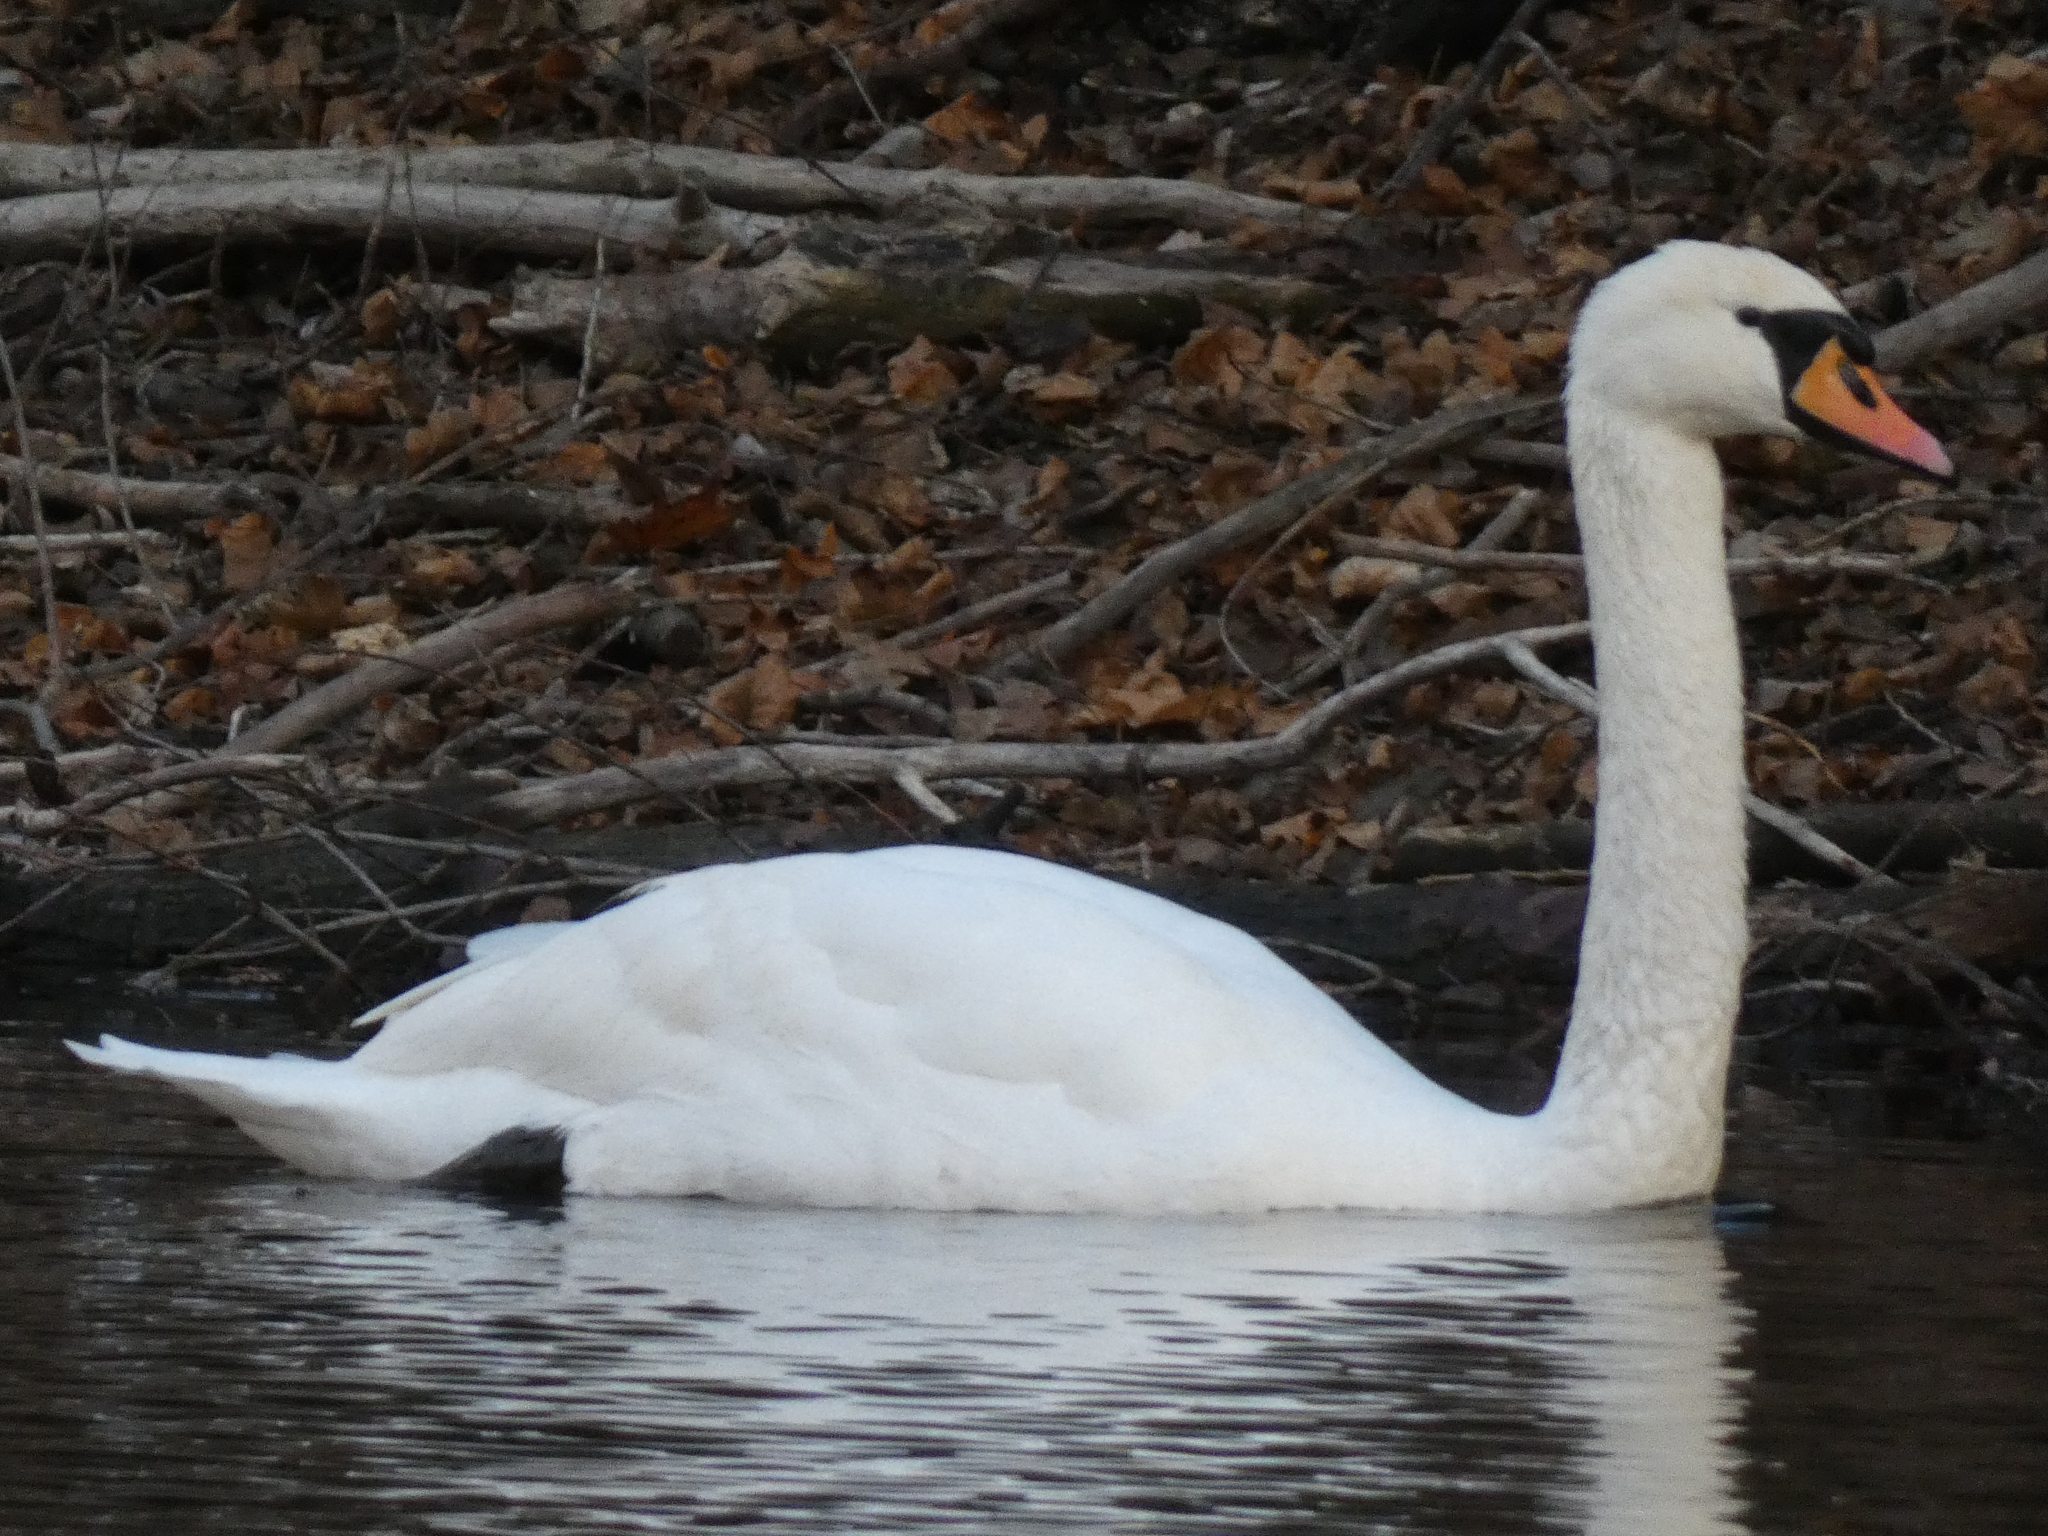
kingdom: Animalia
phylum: Chordata
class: Aves
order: Anseriformes
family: Anatidae
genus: Cygnus
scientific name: Cygnus olor
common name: Mute swan
